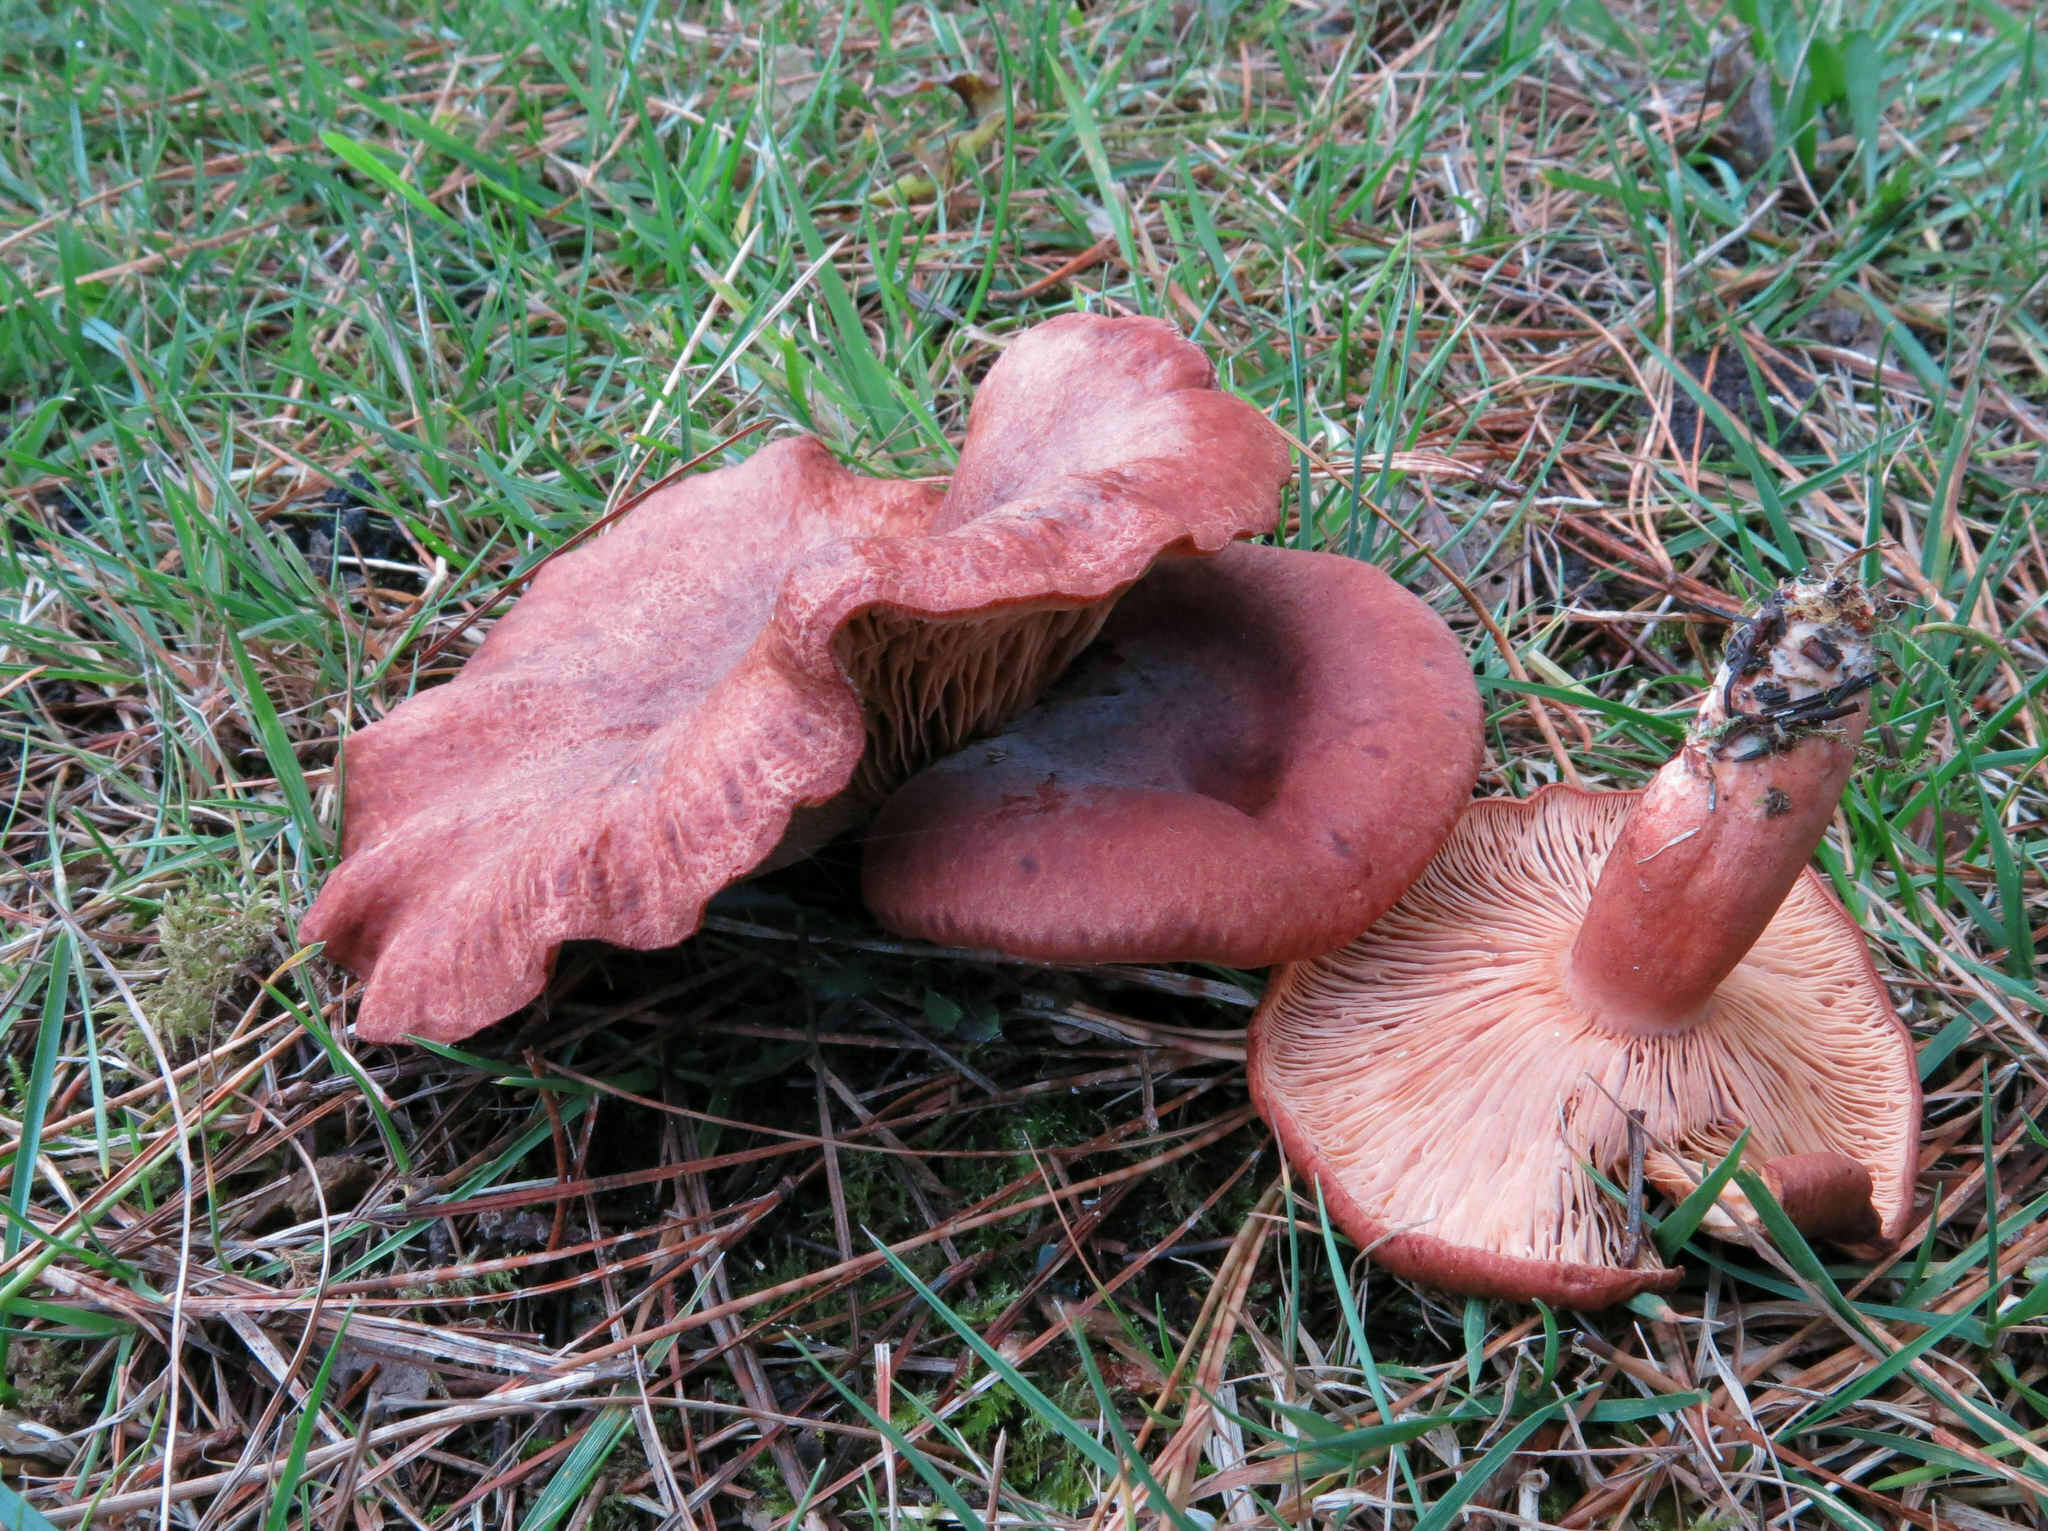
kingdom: Fungi
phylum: Basidiomycota
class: Agaricomycetes
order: Russulales
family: Russulaceae
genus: Lactarius
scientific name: Lactarius rufus
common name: Rufous milk-cap
